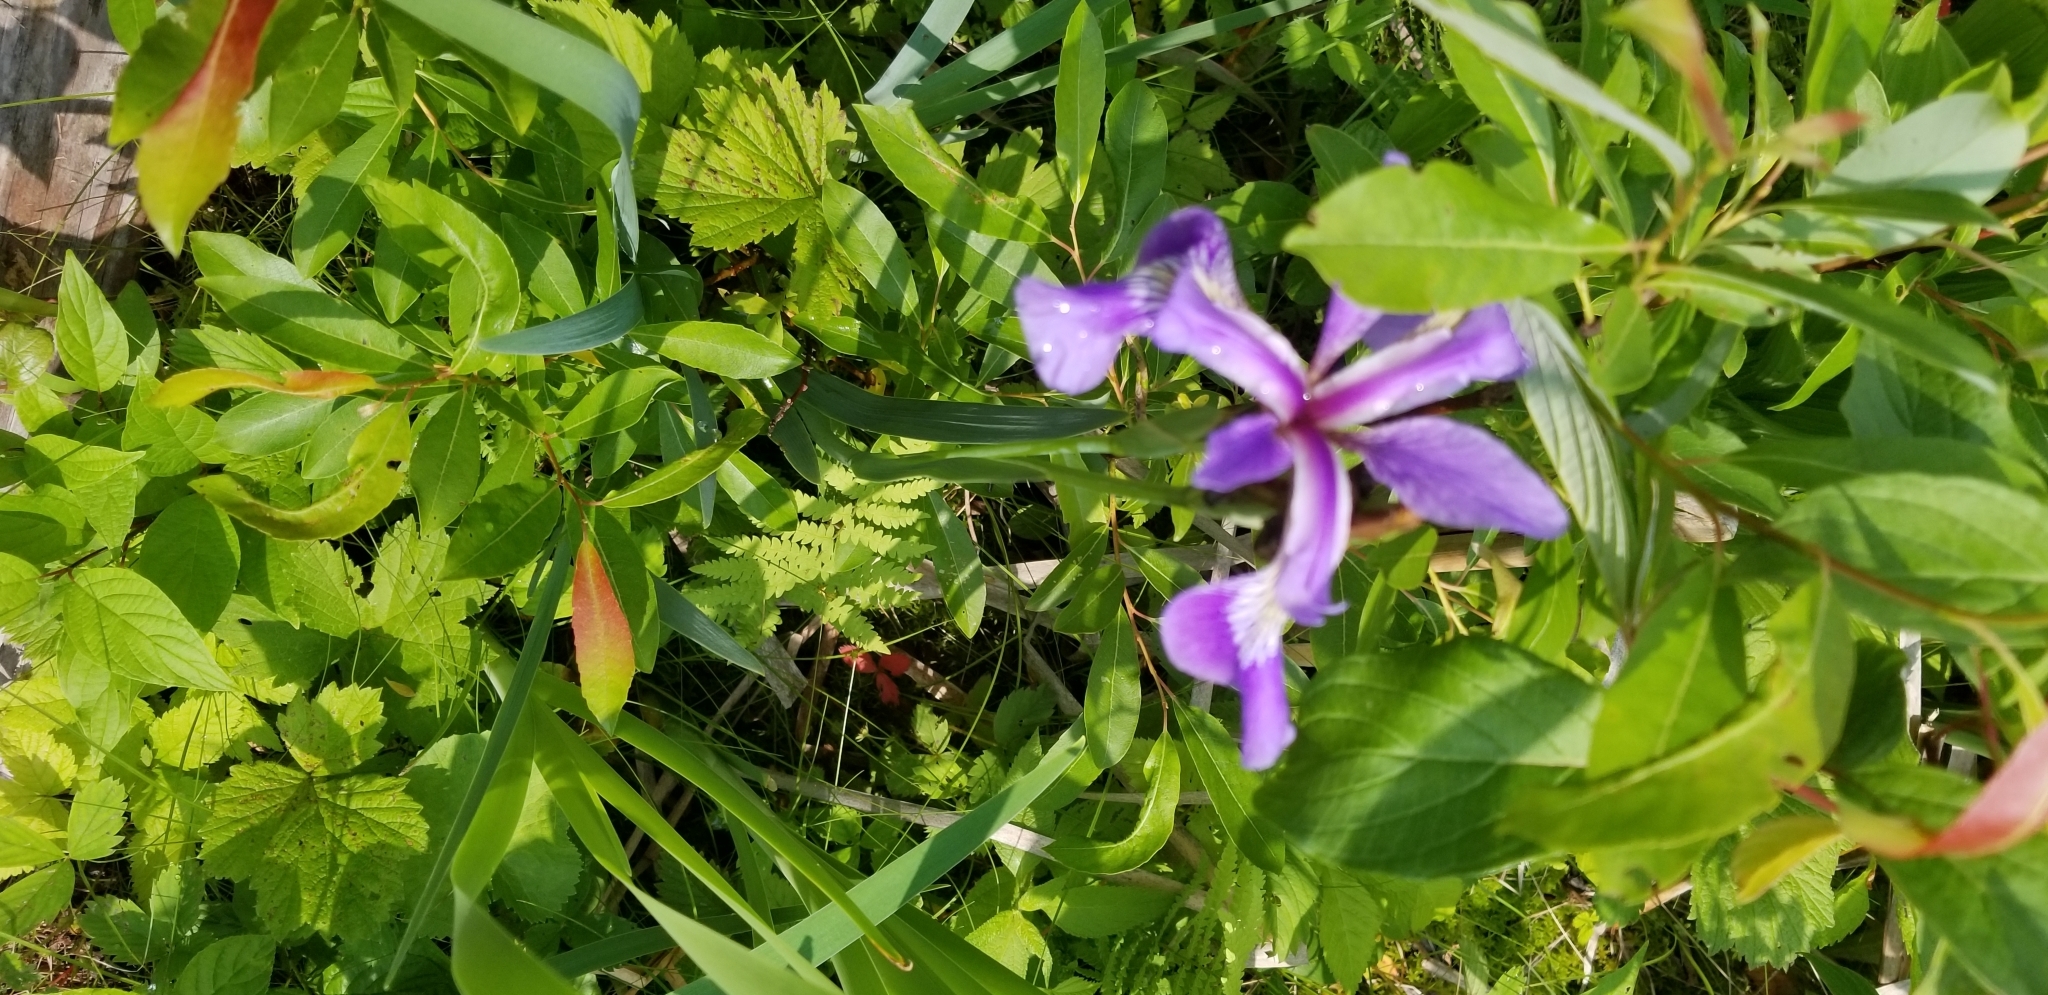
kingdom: Plantae
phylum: Tracheophyta
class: Liliopsida
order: Asparagales
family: Iridaceae
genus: Iris
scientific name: Iris versicolor
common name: Purple iris
